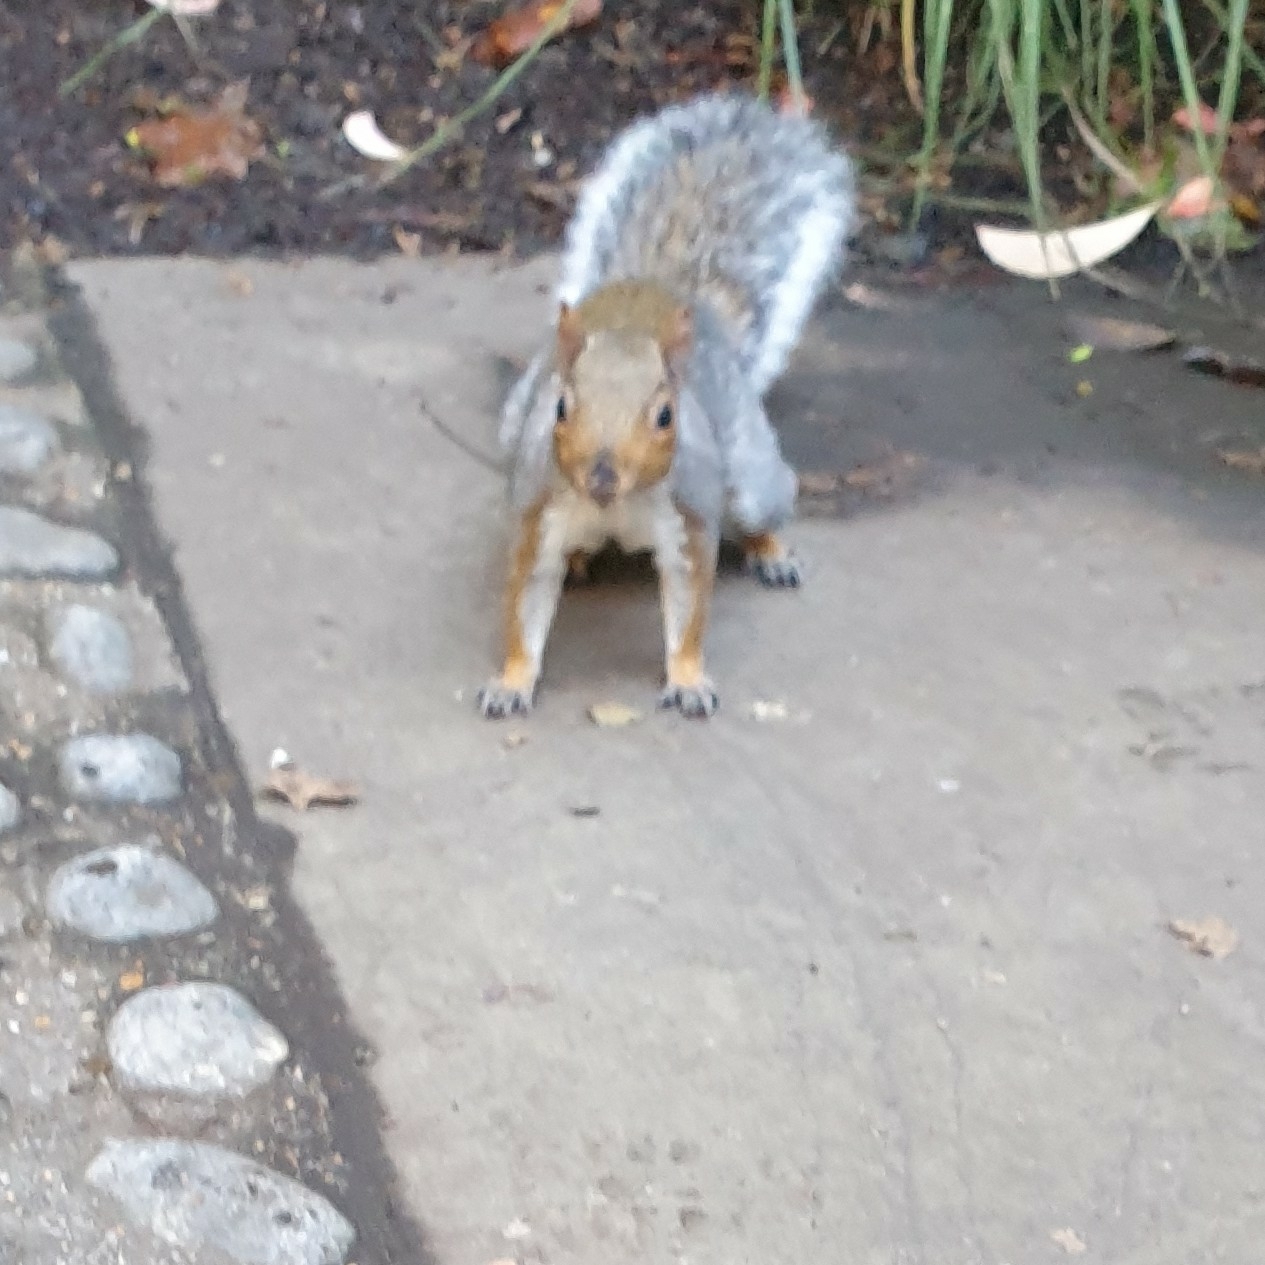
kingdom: Animalia
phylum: Chordata
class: Mammalia
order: Rodentia
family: Sciuridae
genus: Sciurus
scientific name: Sciurus carolinensis
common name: Eastern gray squirrel
